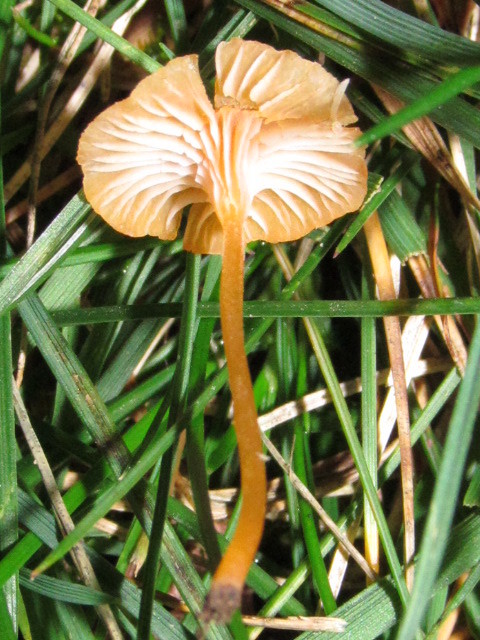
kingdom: Fungi
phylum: Basidiomycota
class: Agaricomycetes
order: Hymenochaetales
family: Rickenellaceae
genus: Rickenella
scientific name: Rickenella fibula
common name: Orange mosscap
